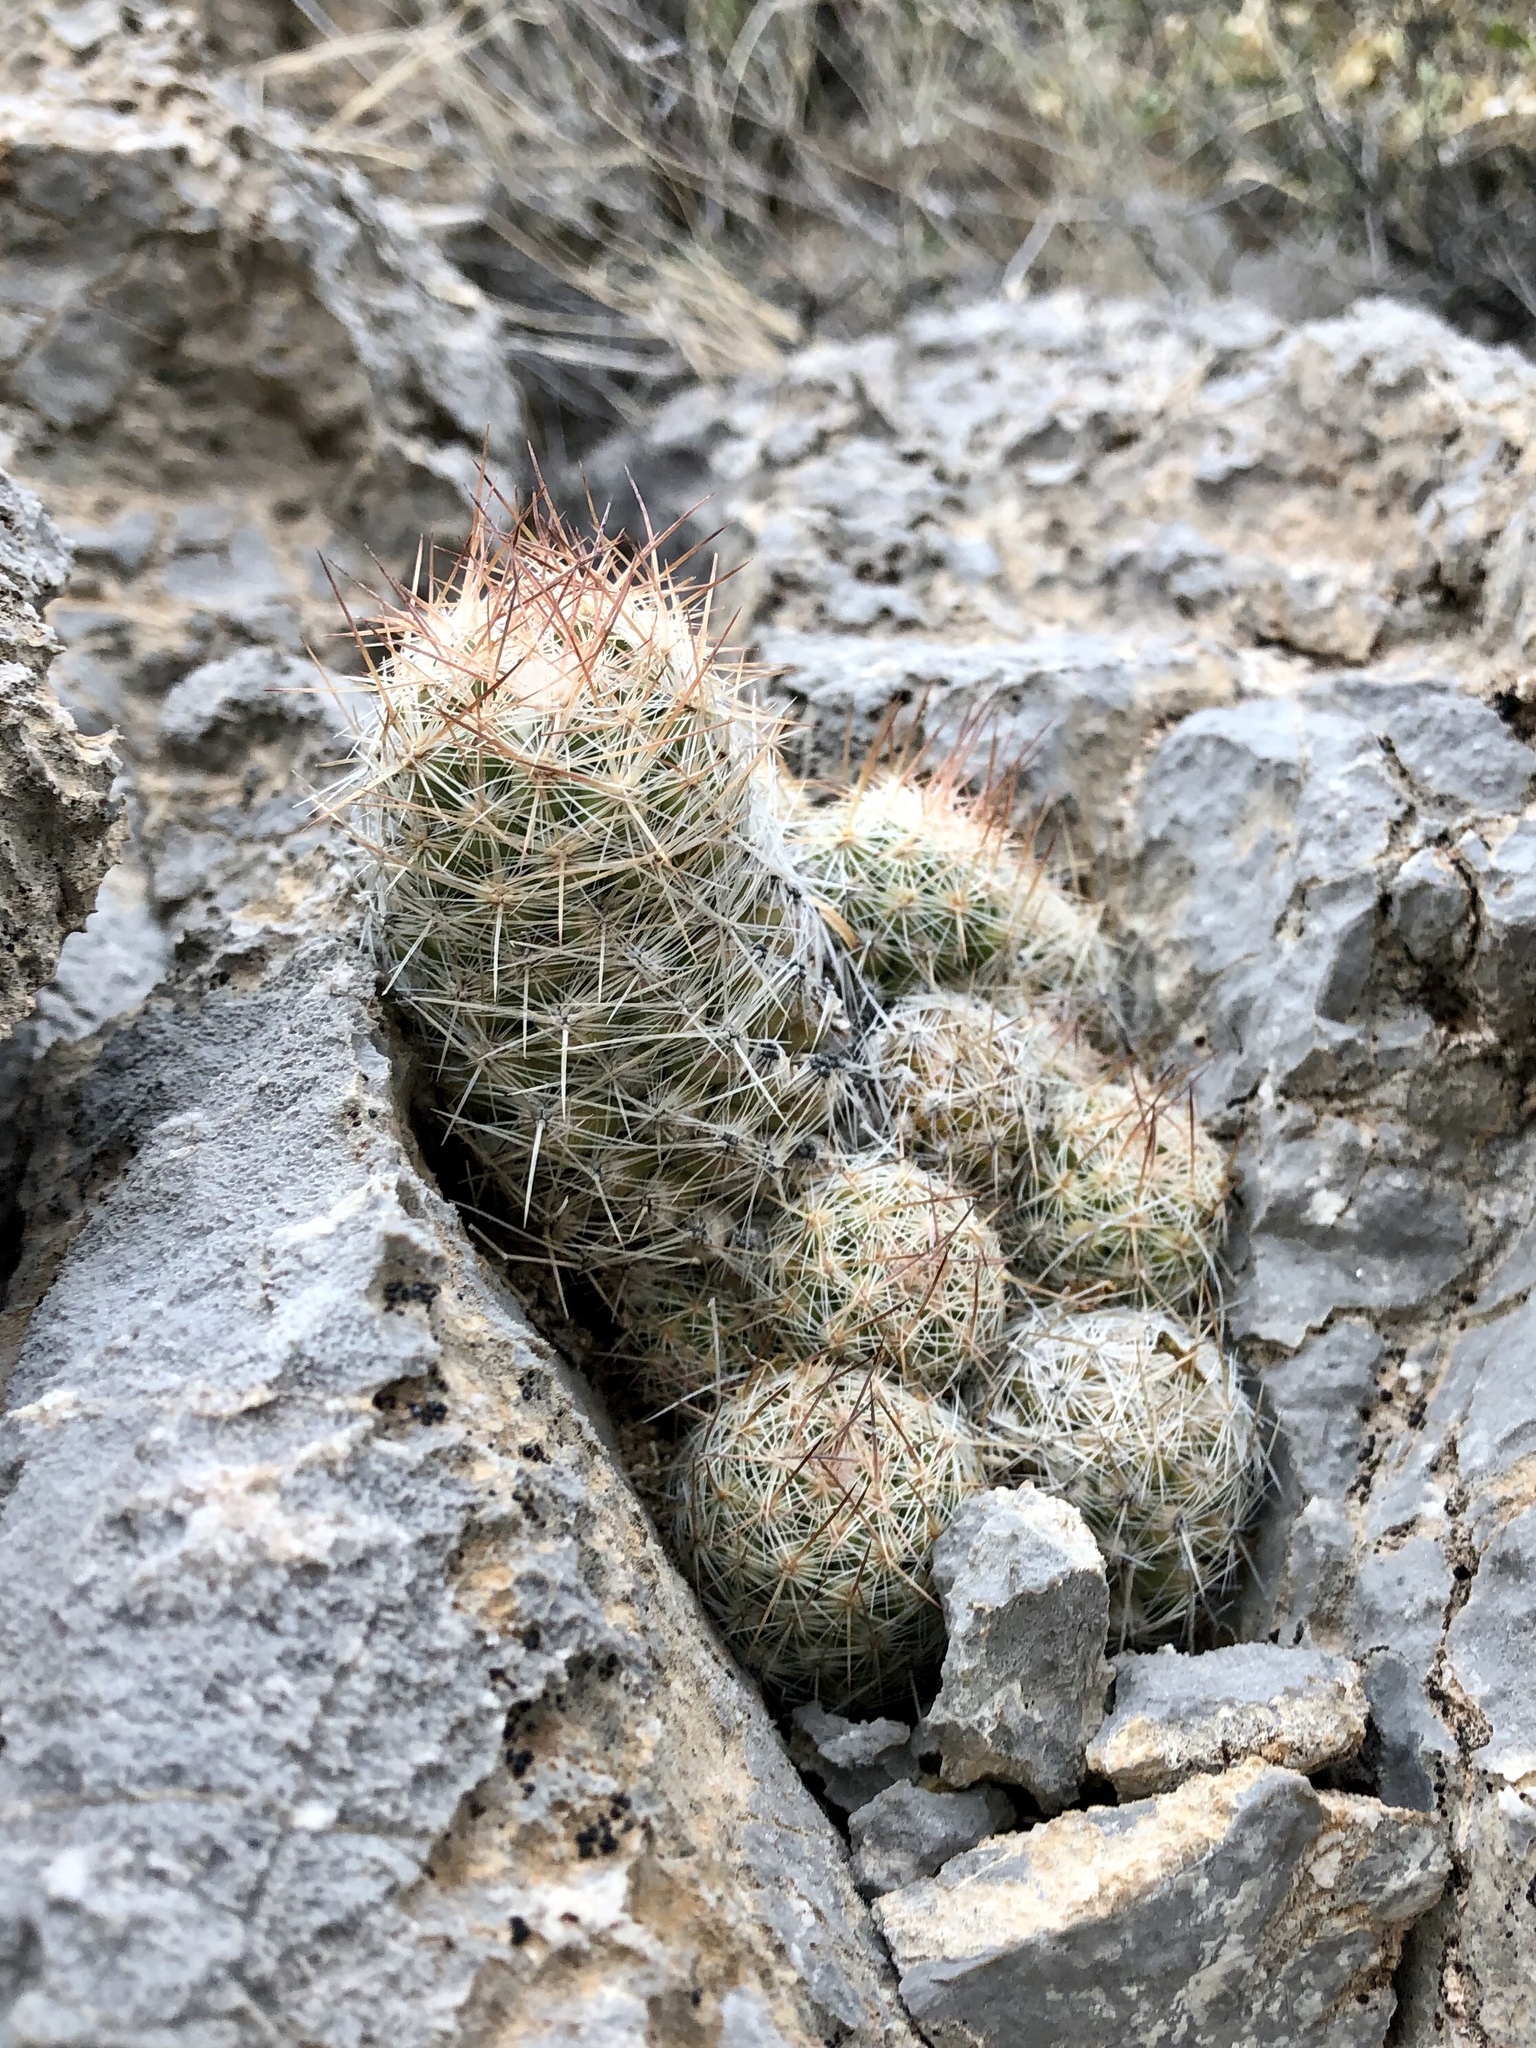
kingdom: Plantae
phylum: Tracheophyta
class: Magnoliopsida
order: Caryophyllales
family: Cactaceae
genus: Pelecyphora
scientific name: Pelecyphora tuberculosa
